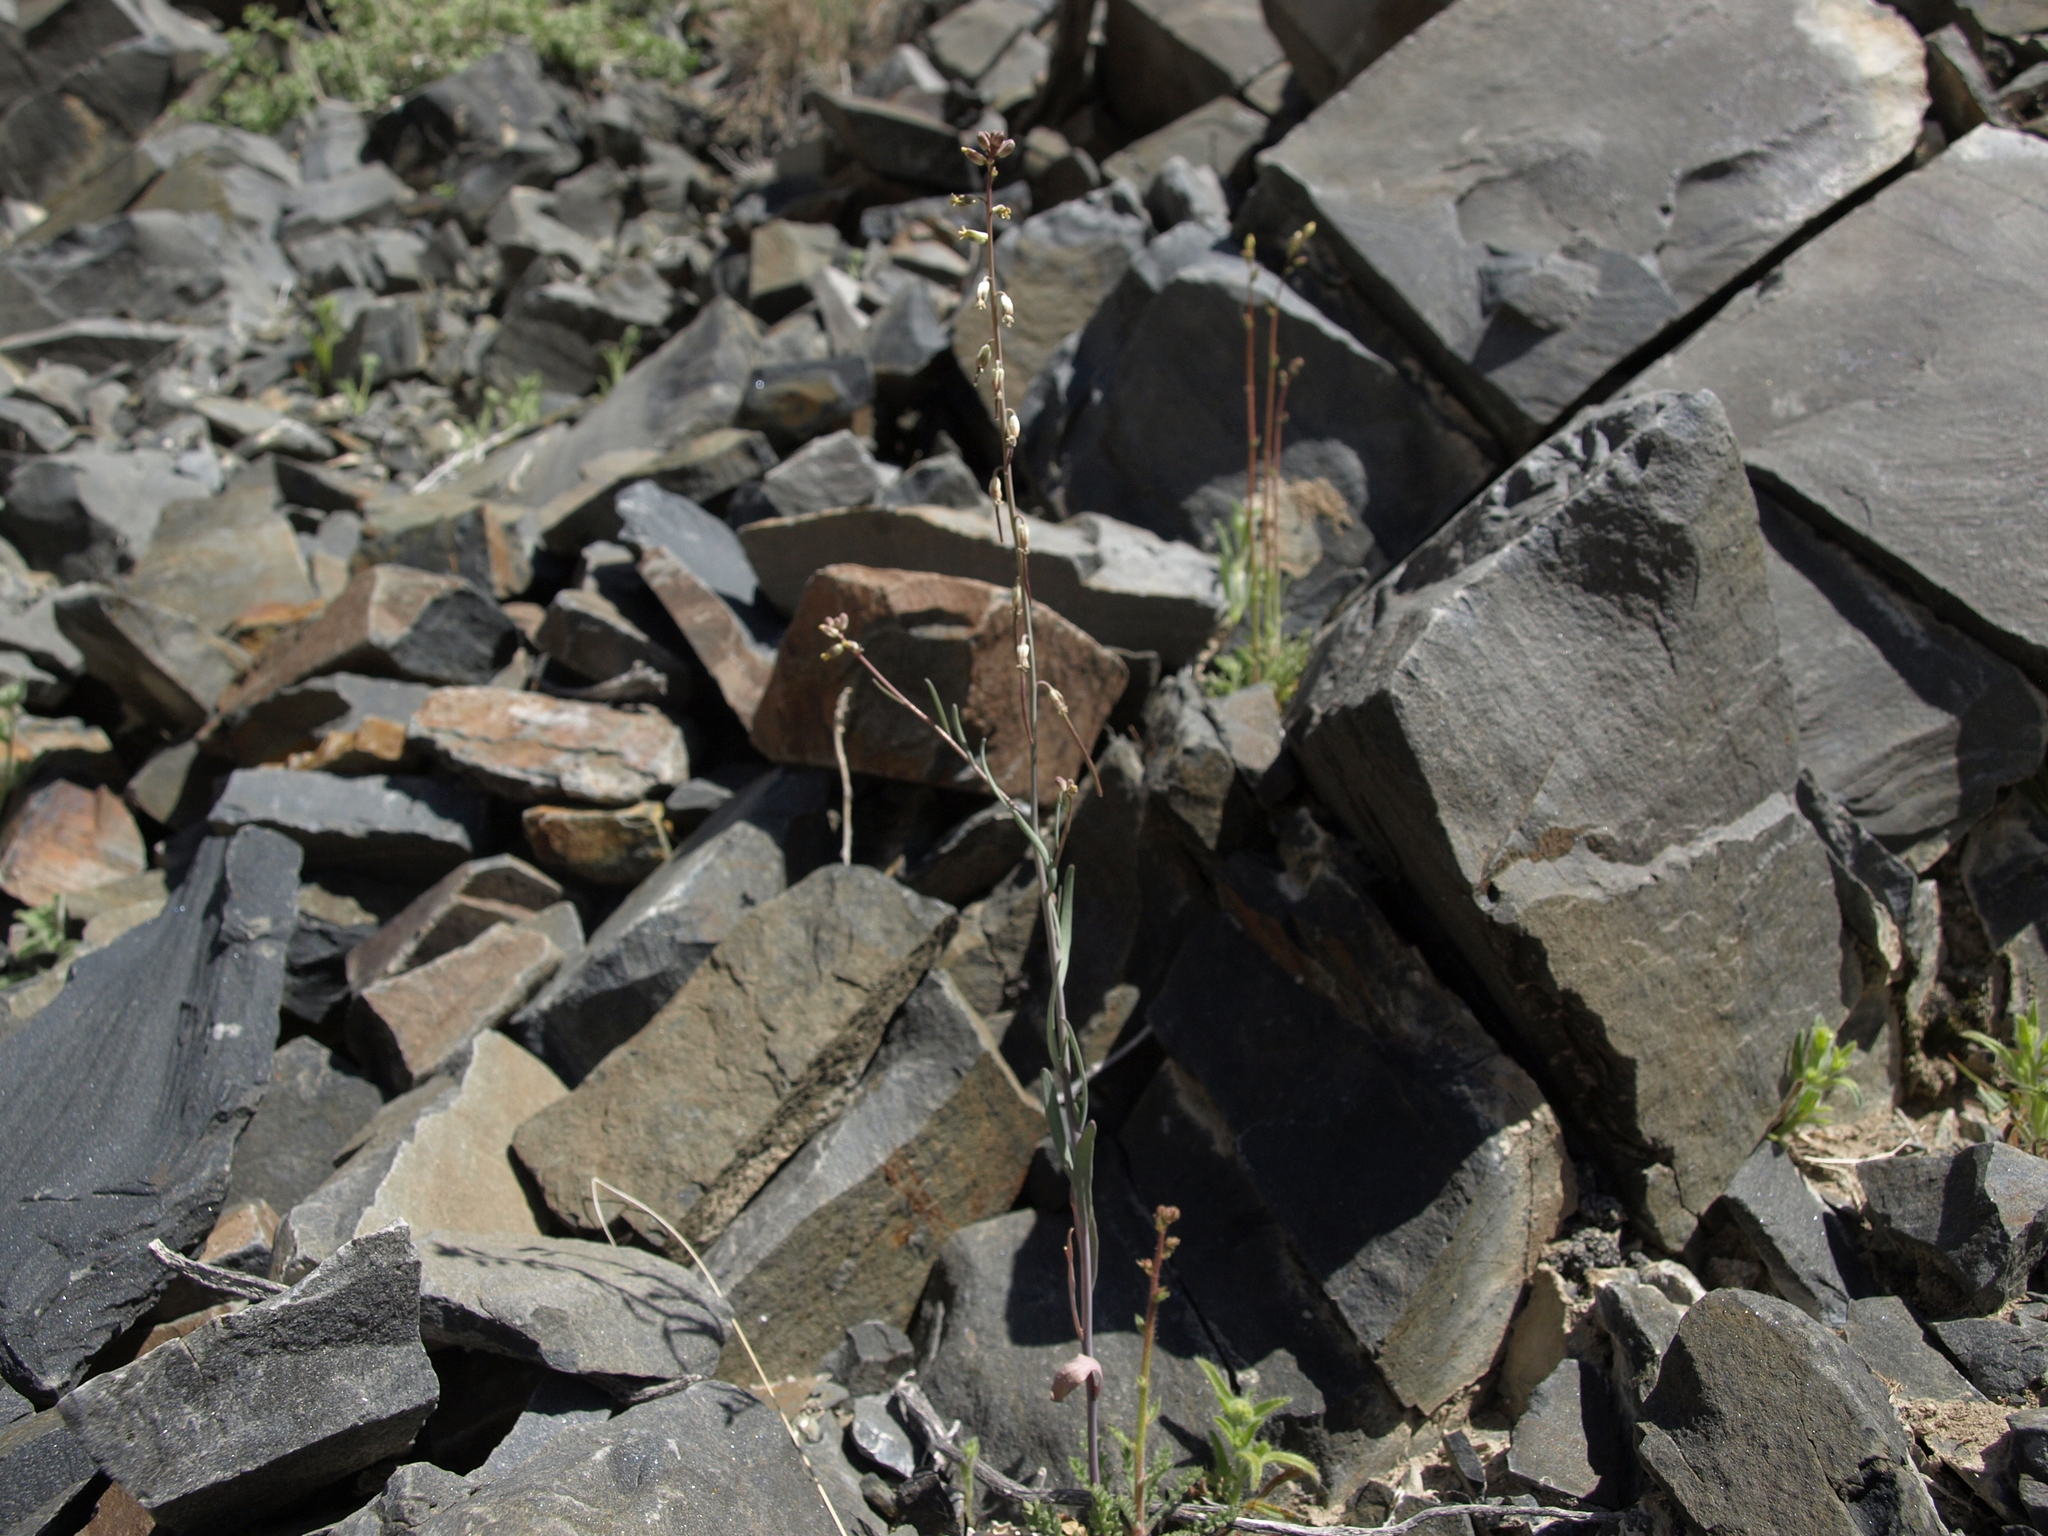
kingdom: Plantae
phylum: Tracheophyta
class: Magnoliopsida
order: Brassicales
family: Brassicaceae
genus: Streptanthus
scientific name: Streptanthus longirostris
